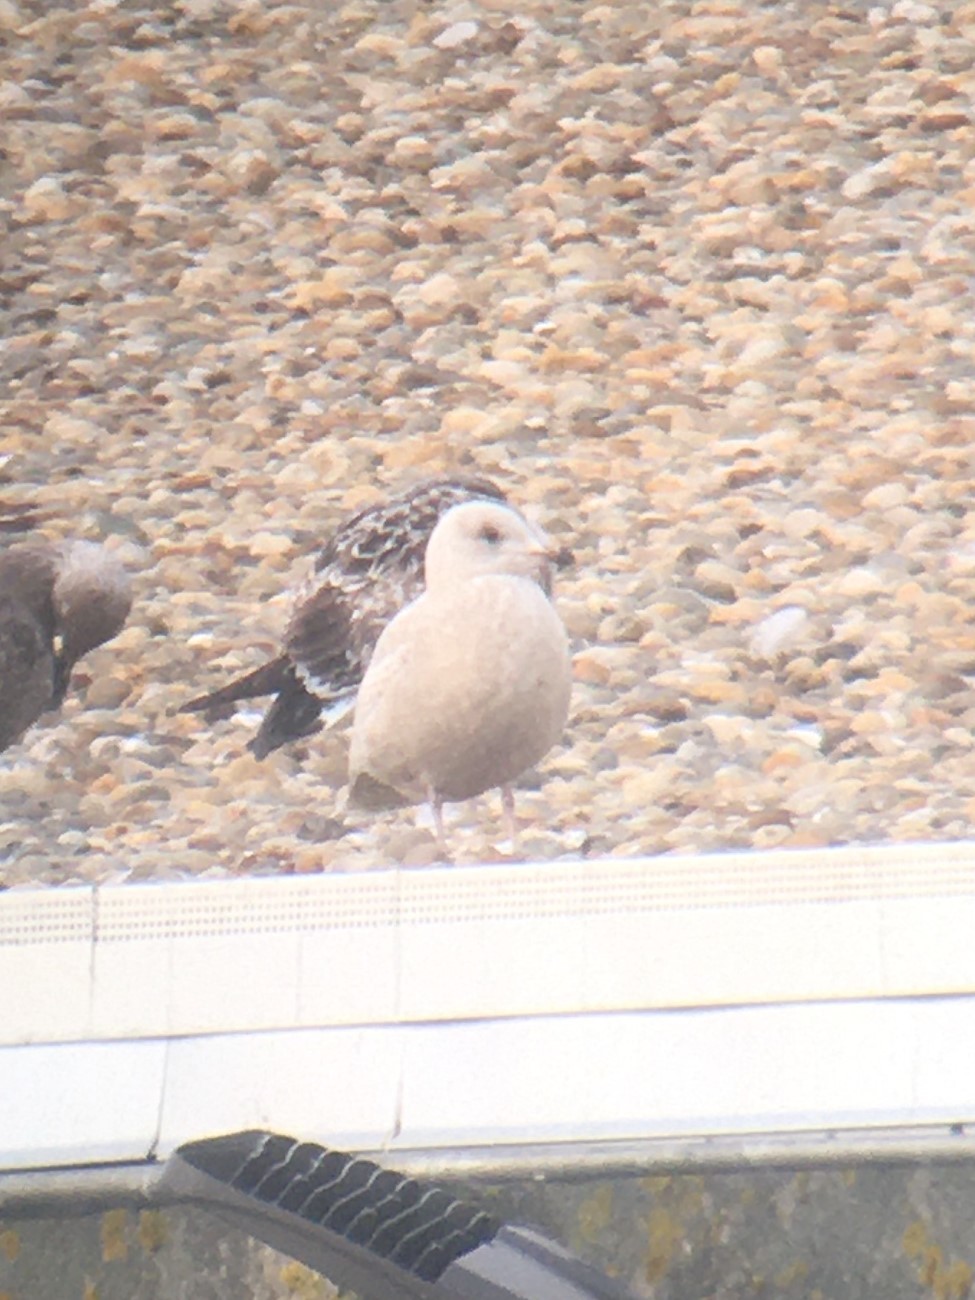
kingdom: Animalia
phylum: Chordata
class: Aves
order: Charadriiformes
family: Laridae
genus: Larus
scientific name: Larus glaucoides
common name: Iceland gull
